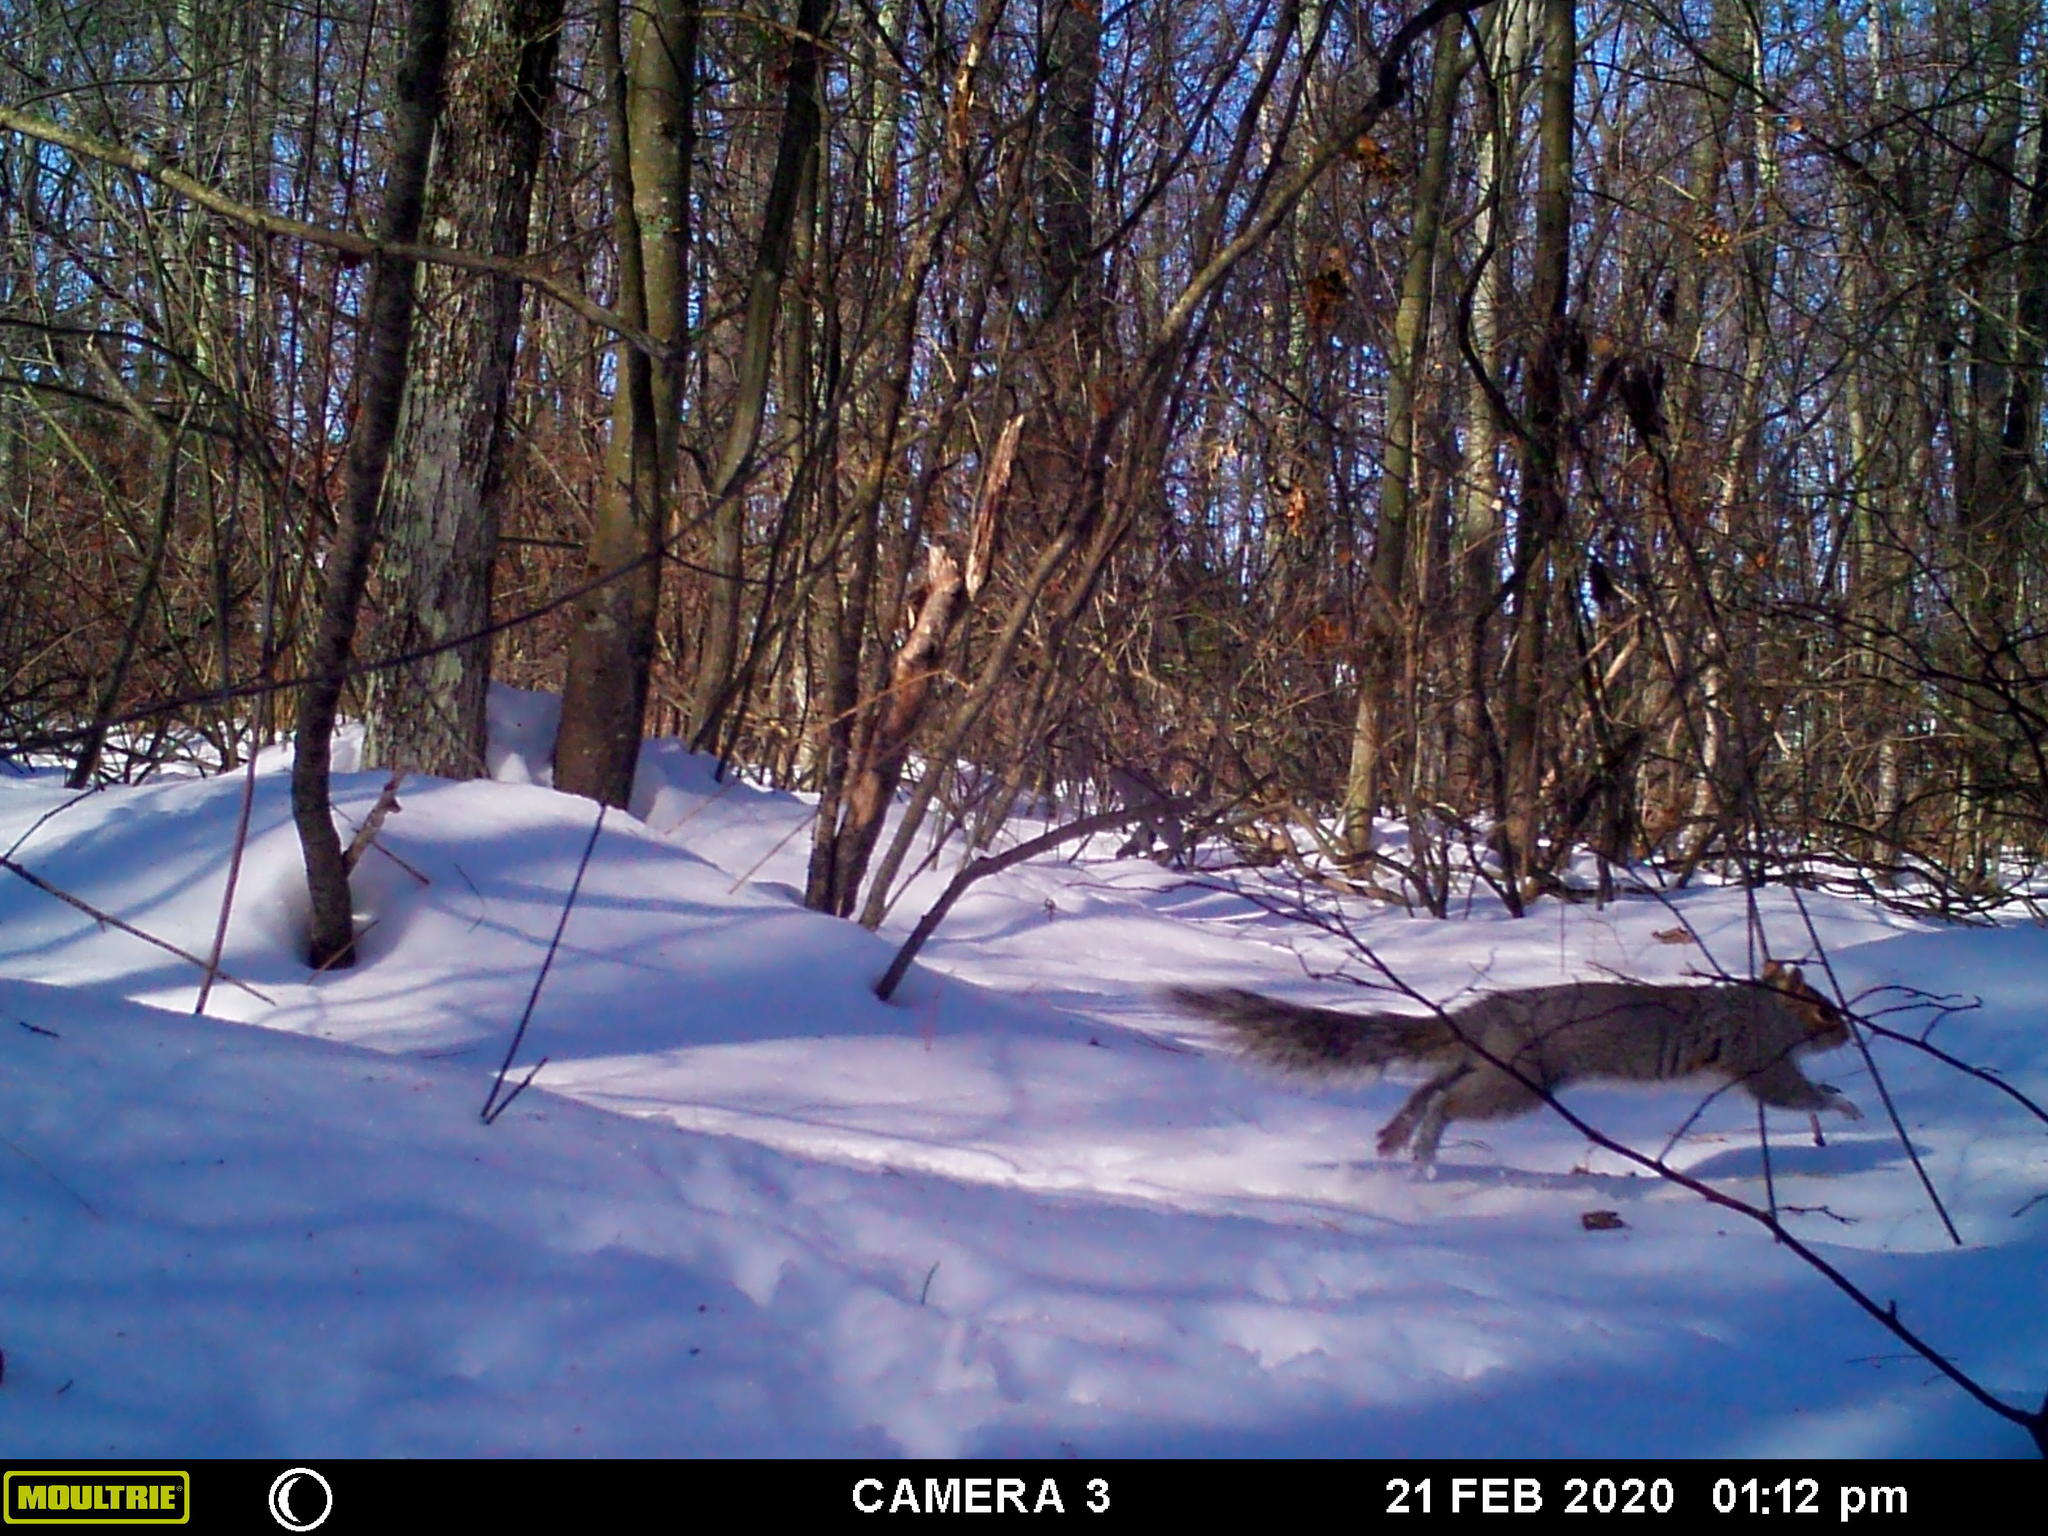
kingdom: Animalia
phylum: Chordata
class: Mammalia
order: Rodentia
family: Sciuridae
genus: Sciurus
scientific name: Sciurus carolinensis
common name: Eastern gray squirrel
